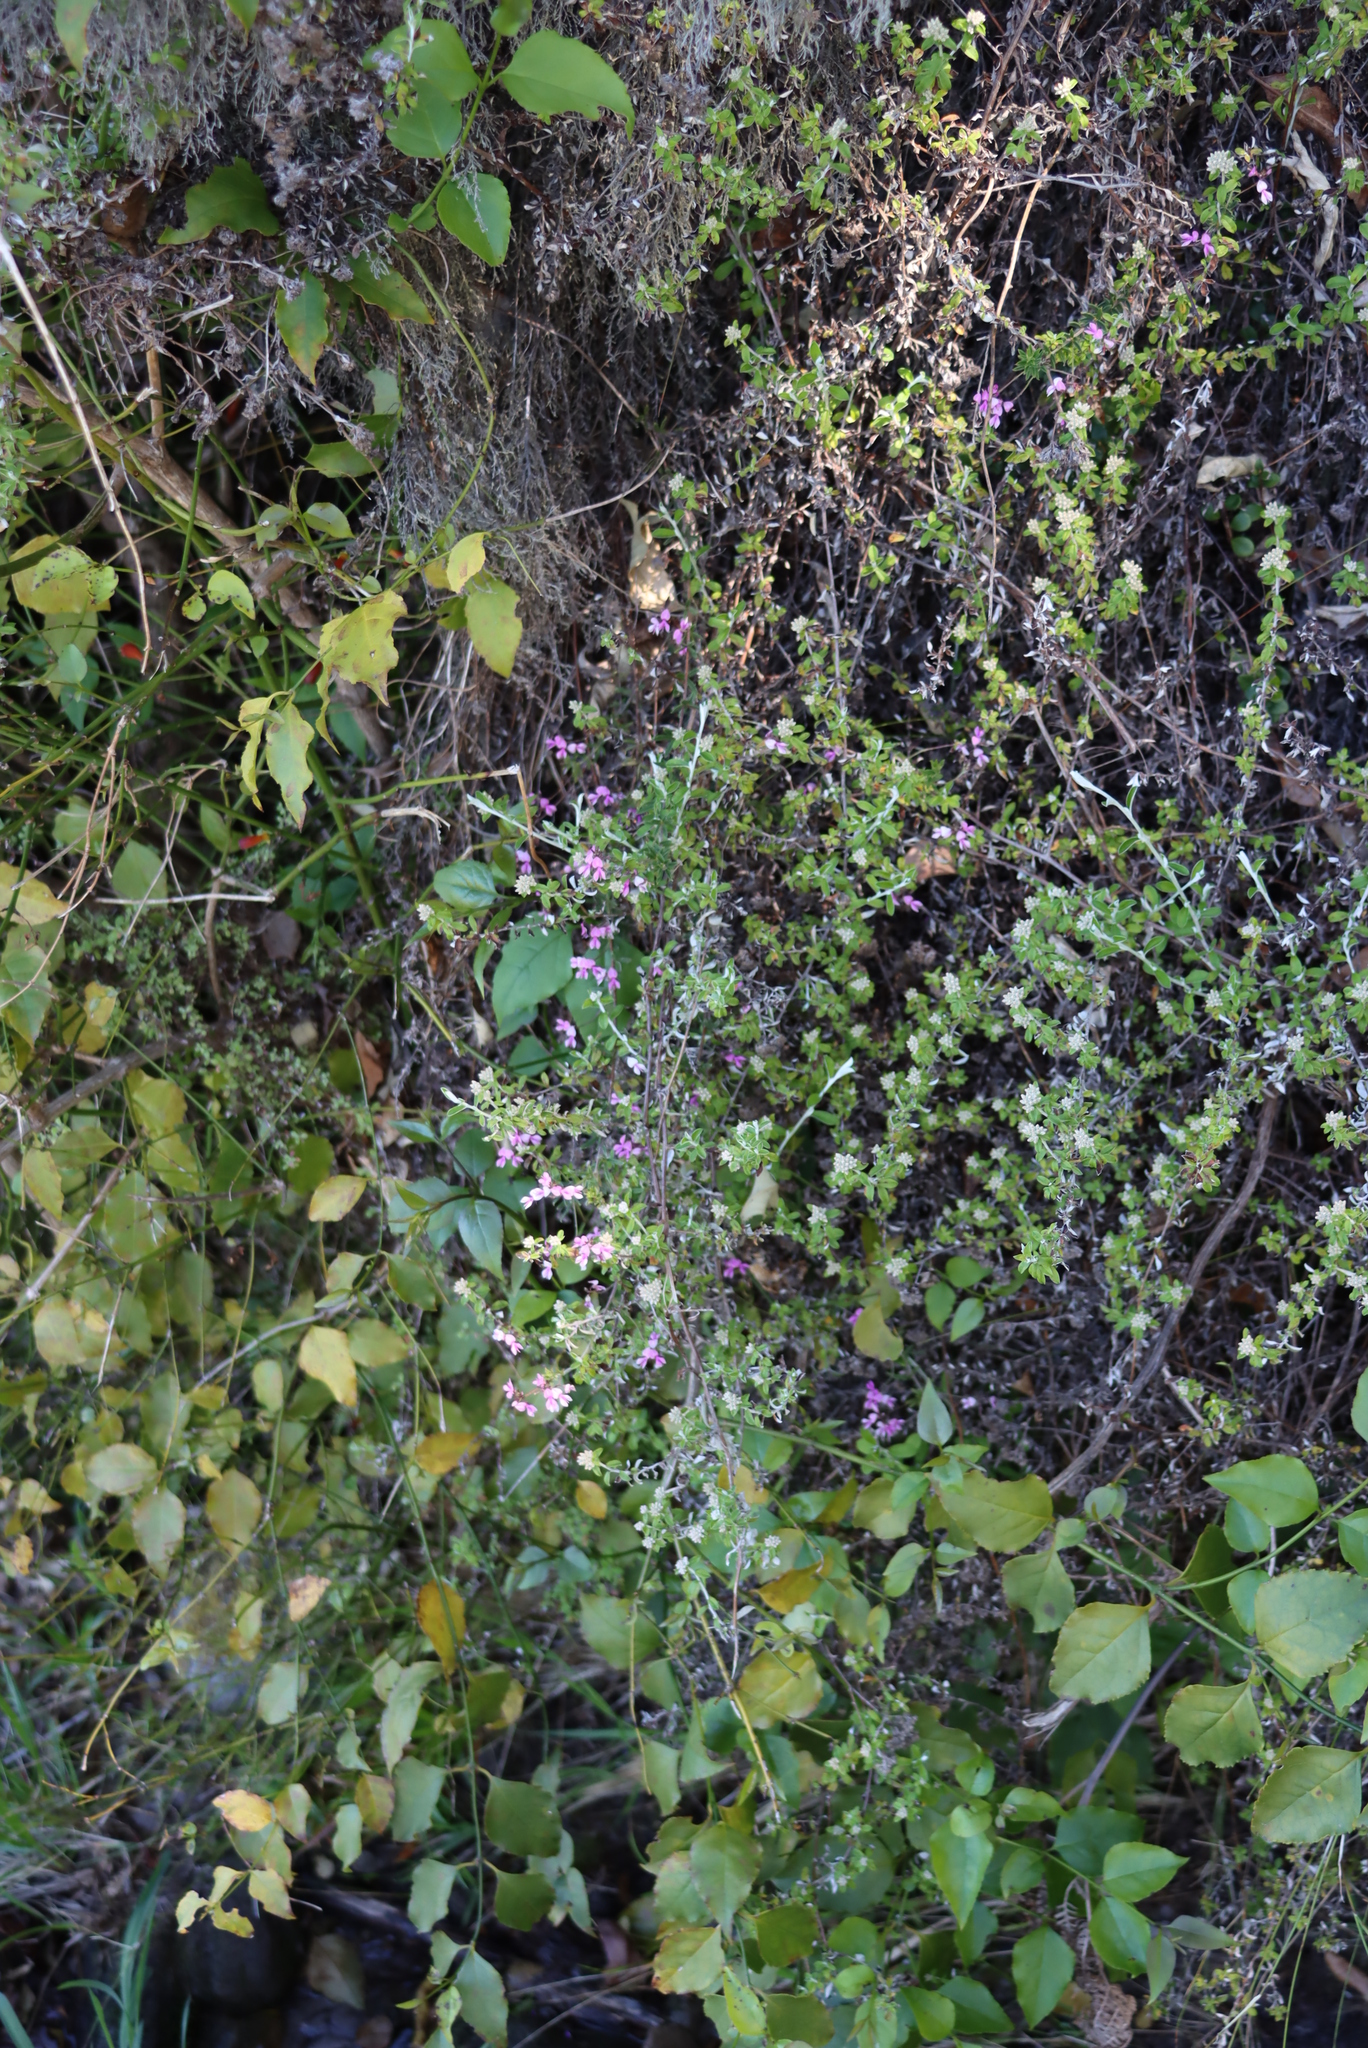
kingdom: Plantae
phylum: Tracheophyta
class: Magnoliopsida
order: Fabales
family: Fabaceae
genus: Indigofera
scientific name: Indigofera filiformis
